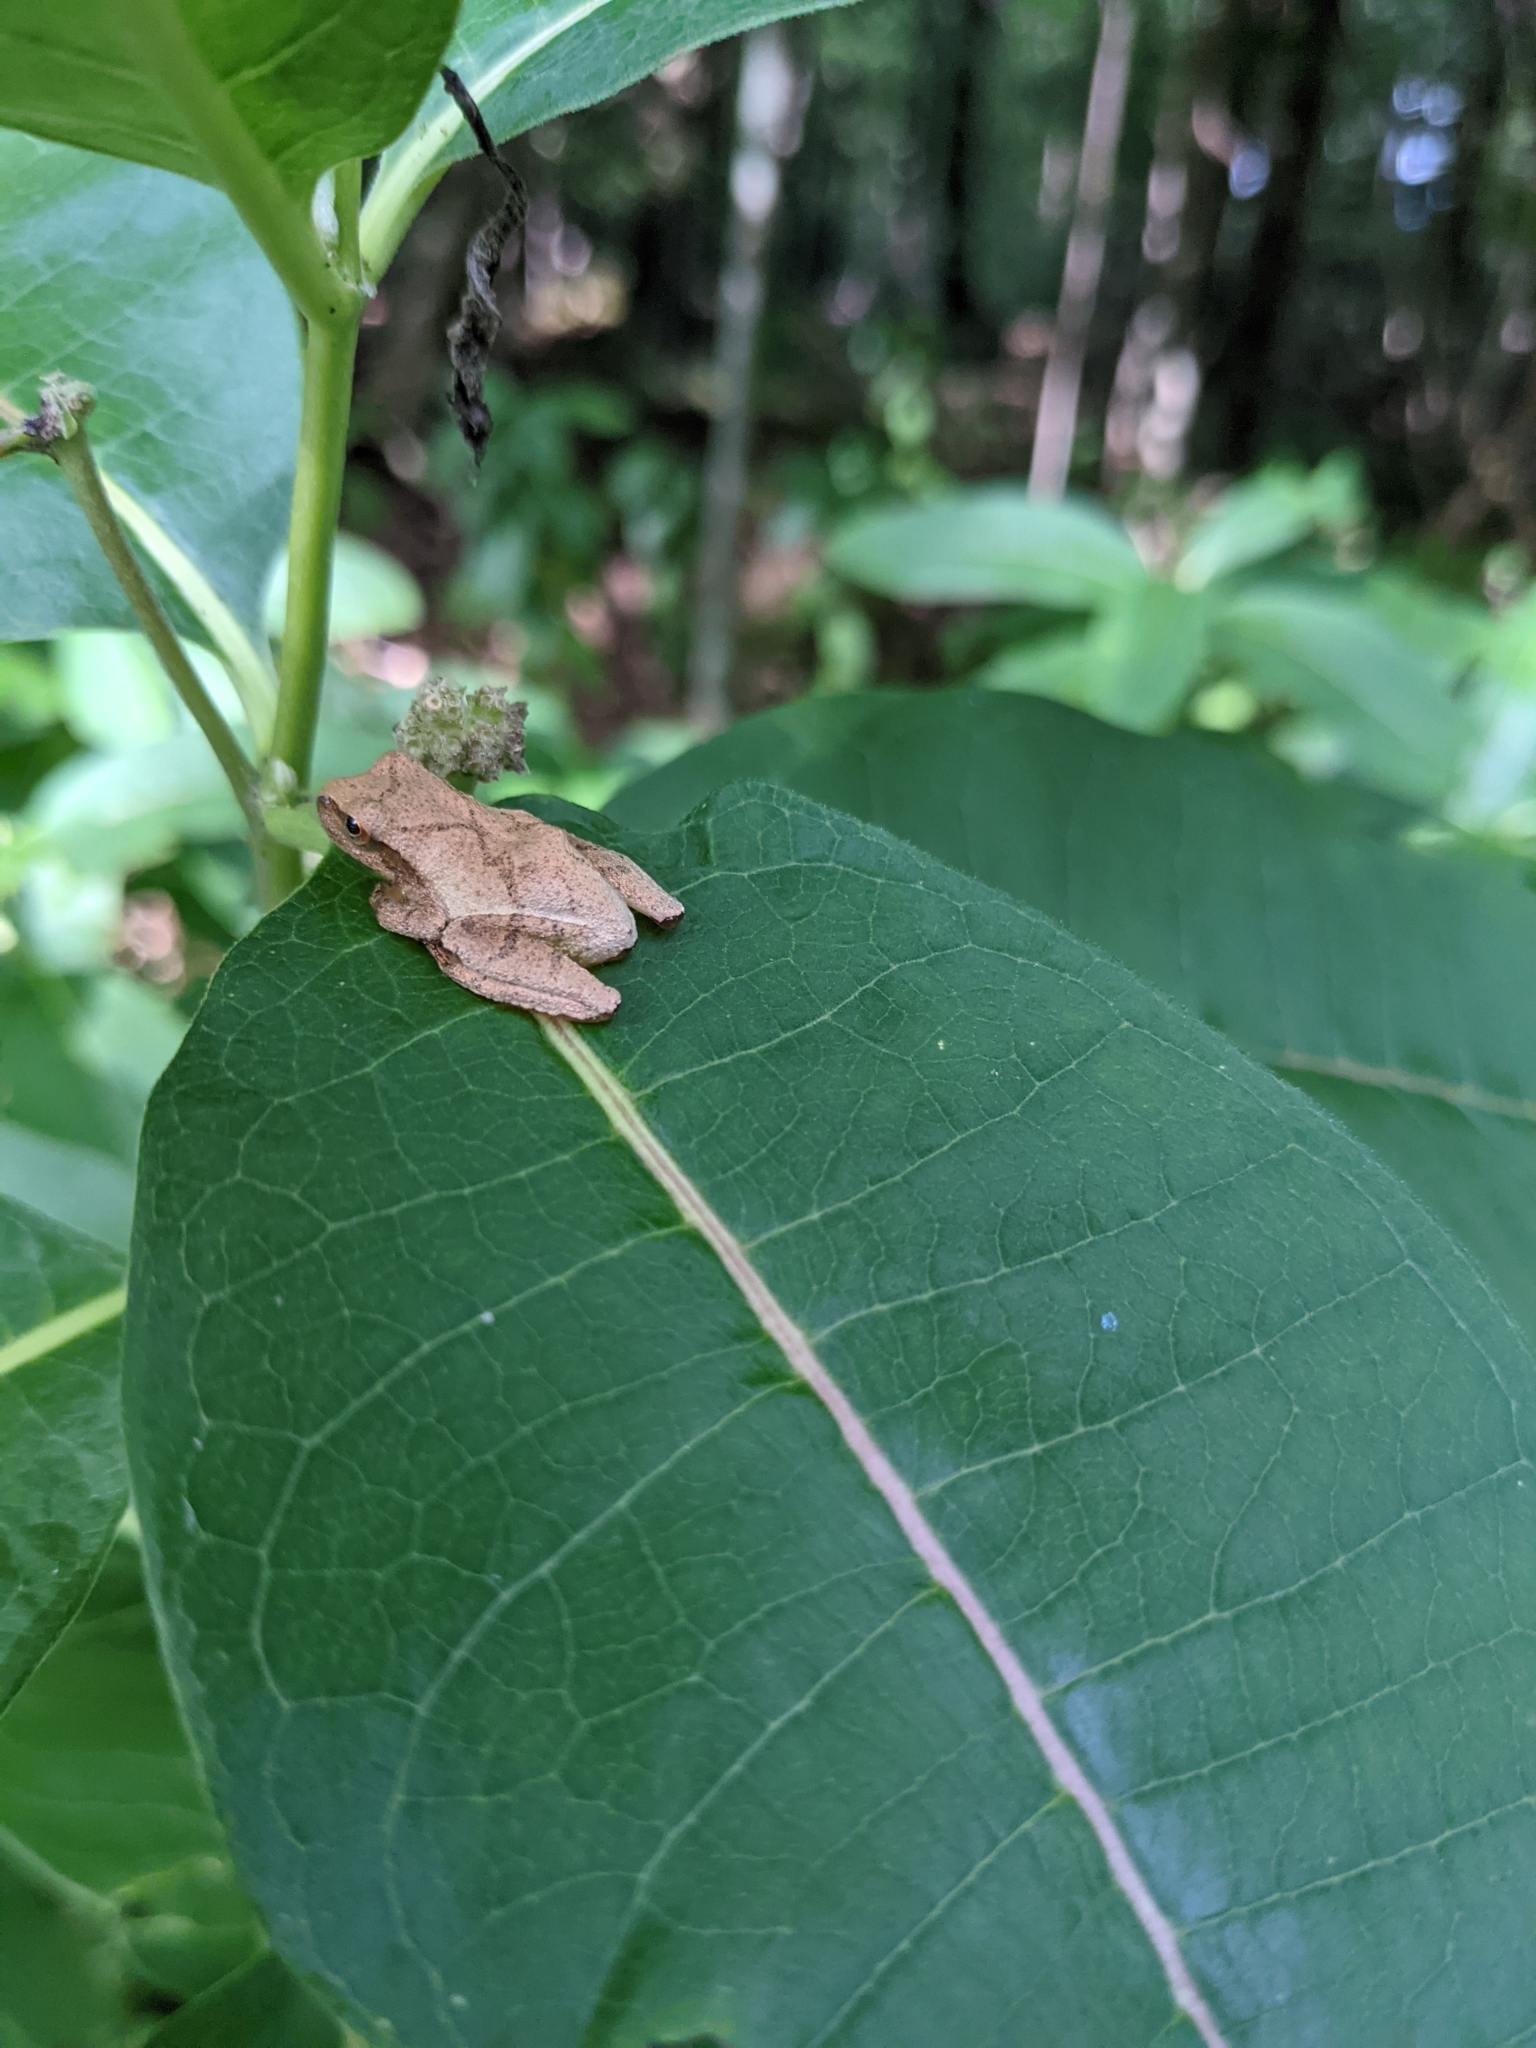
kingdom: Animalia
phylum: Chordata
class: Amphibia
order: Anura
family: Hylidae
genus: Pseudacris
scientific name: Pseudacris crucifer
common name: Spring peeper
